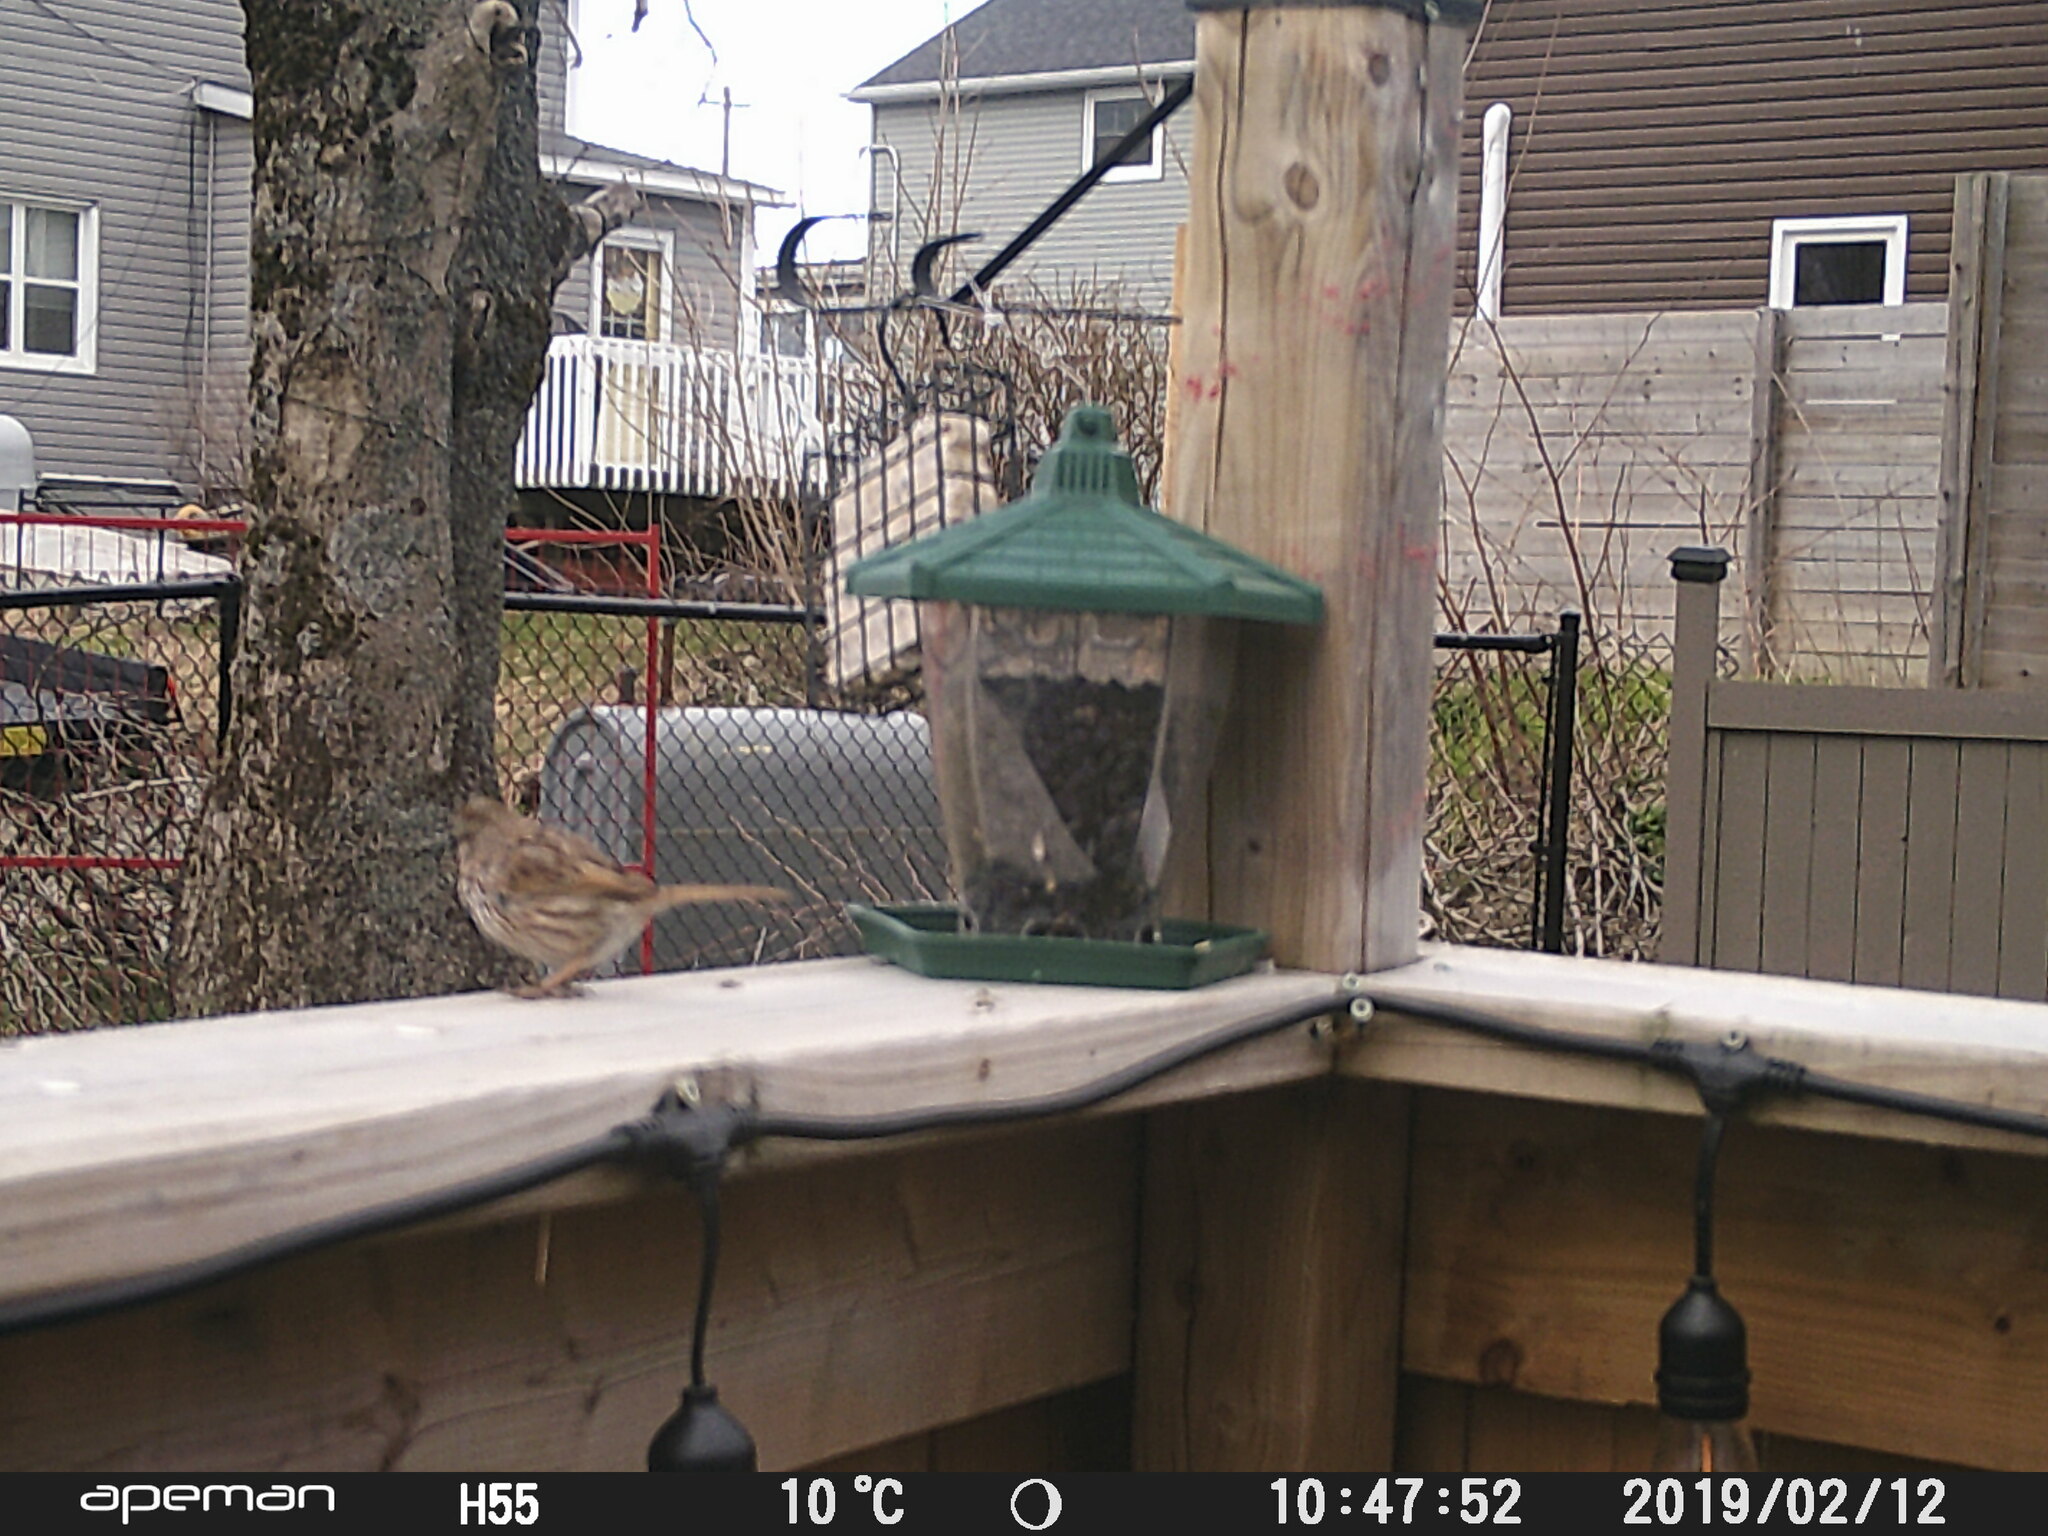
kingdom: Animalia
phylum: Chordata
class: Aves
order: Passeriformes
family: Passerellidae
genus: Melospiza
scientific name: Melospiza melodia
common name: Song sparrow
